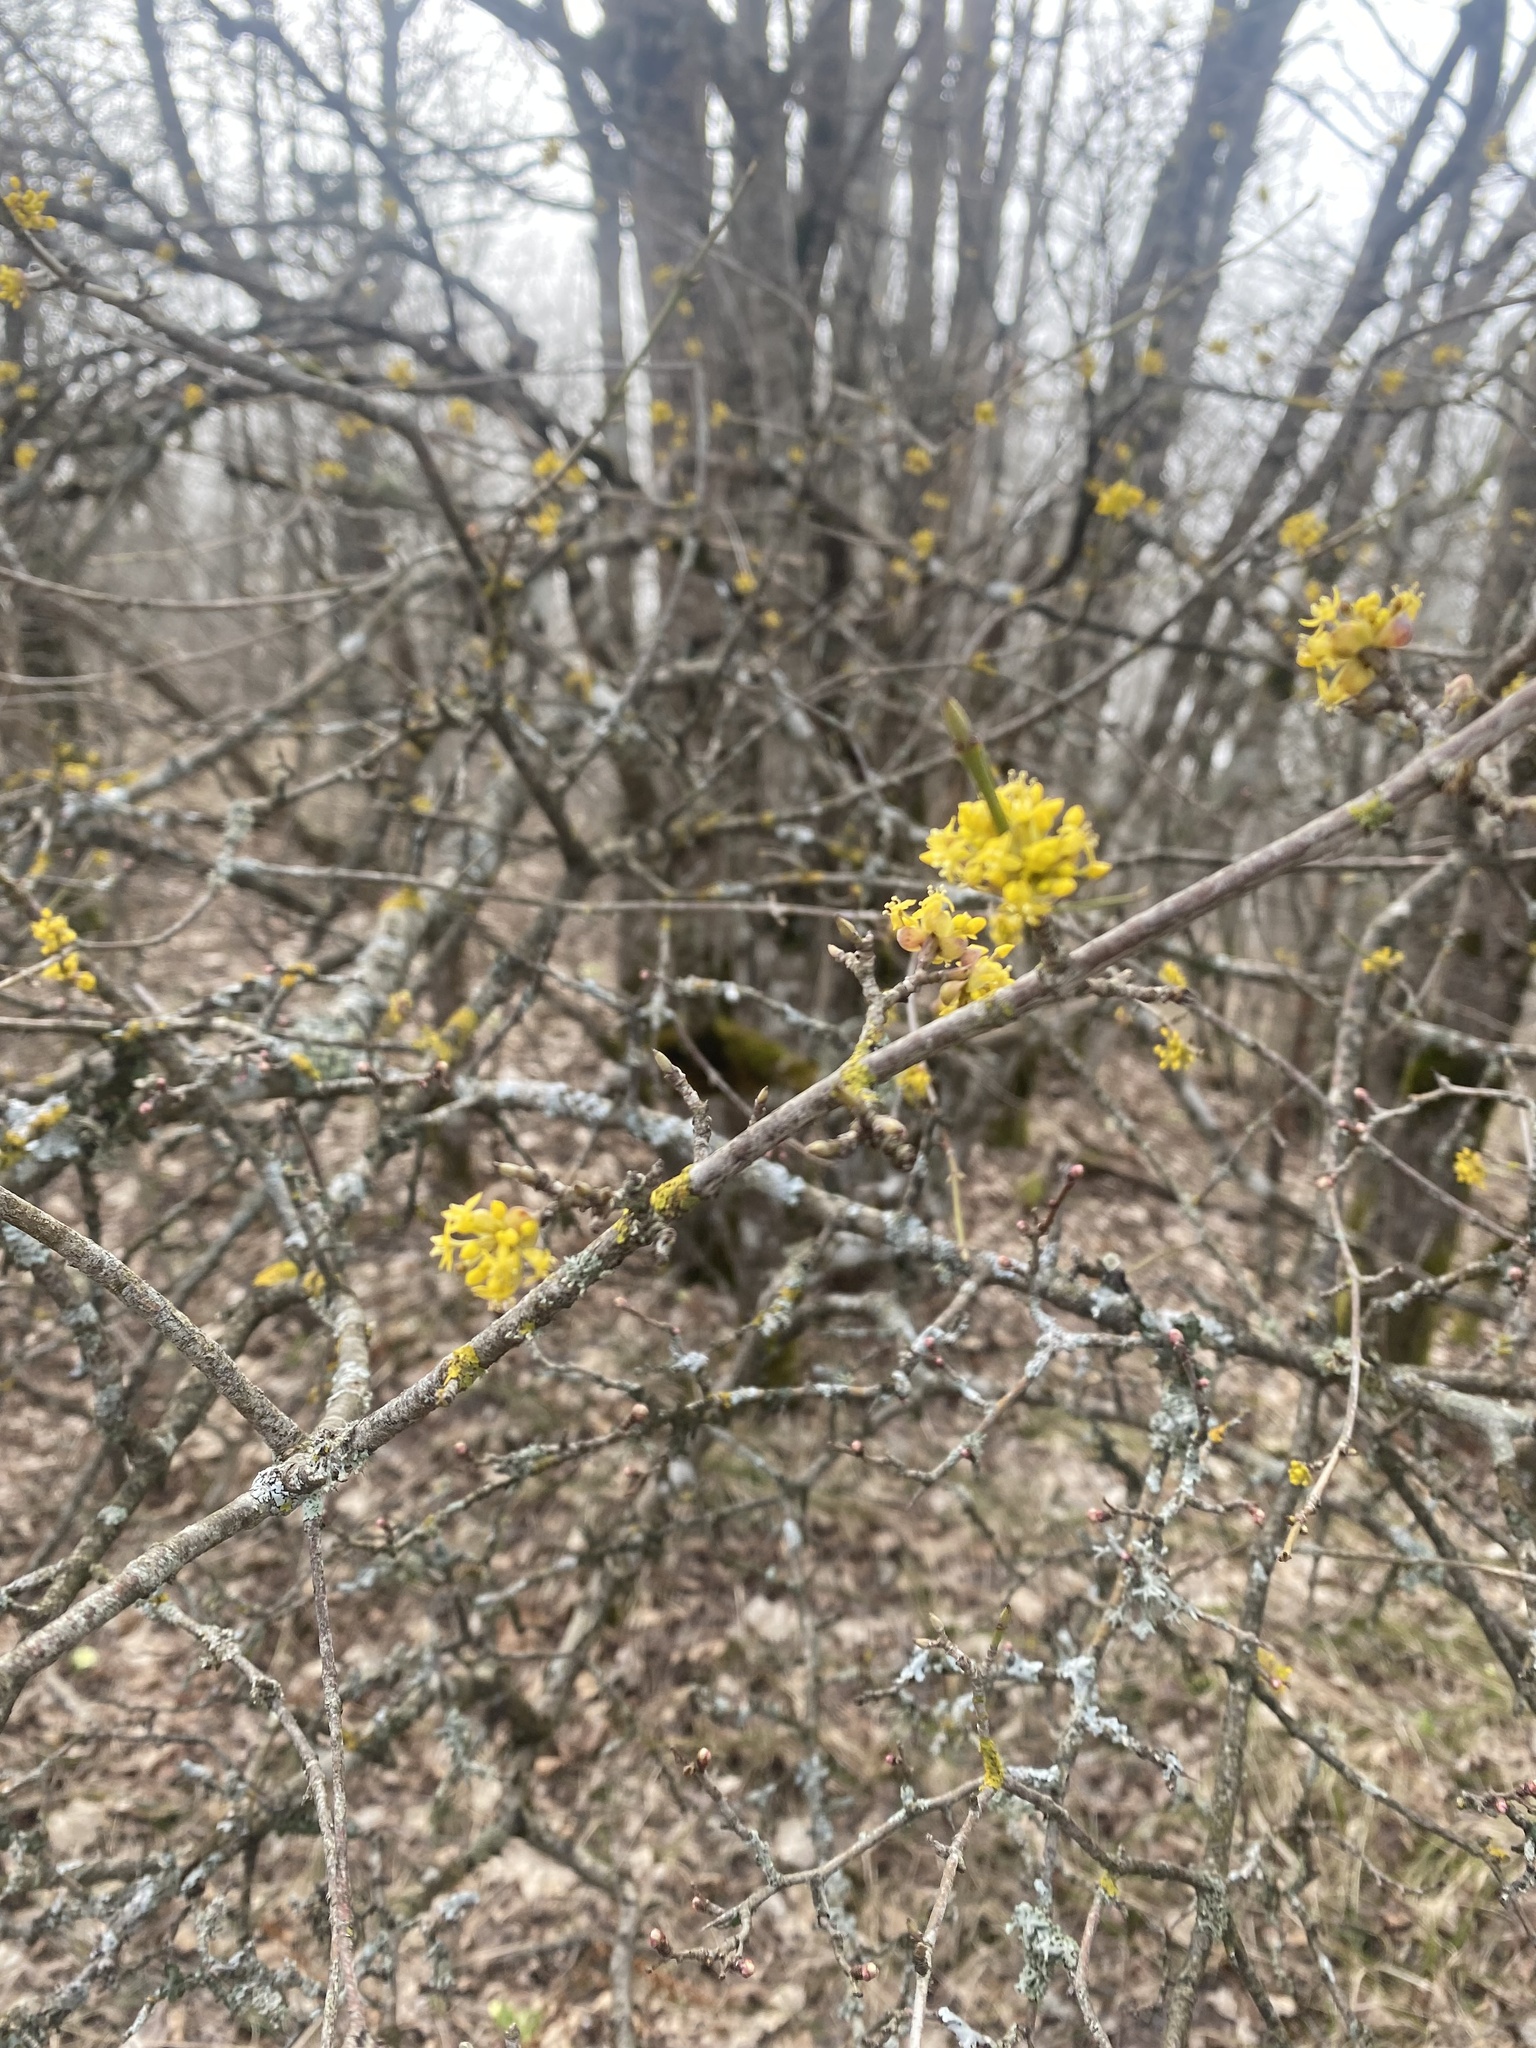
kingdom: Plantae
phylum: Tracheophyta
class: Magnoliopsida
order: Cornales
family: Cornaceae
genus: Cornus
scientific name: Cornus mas
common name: Cornelian-cherry
